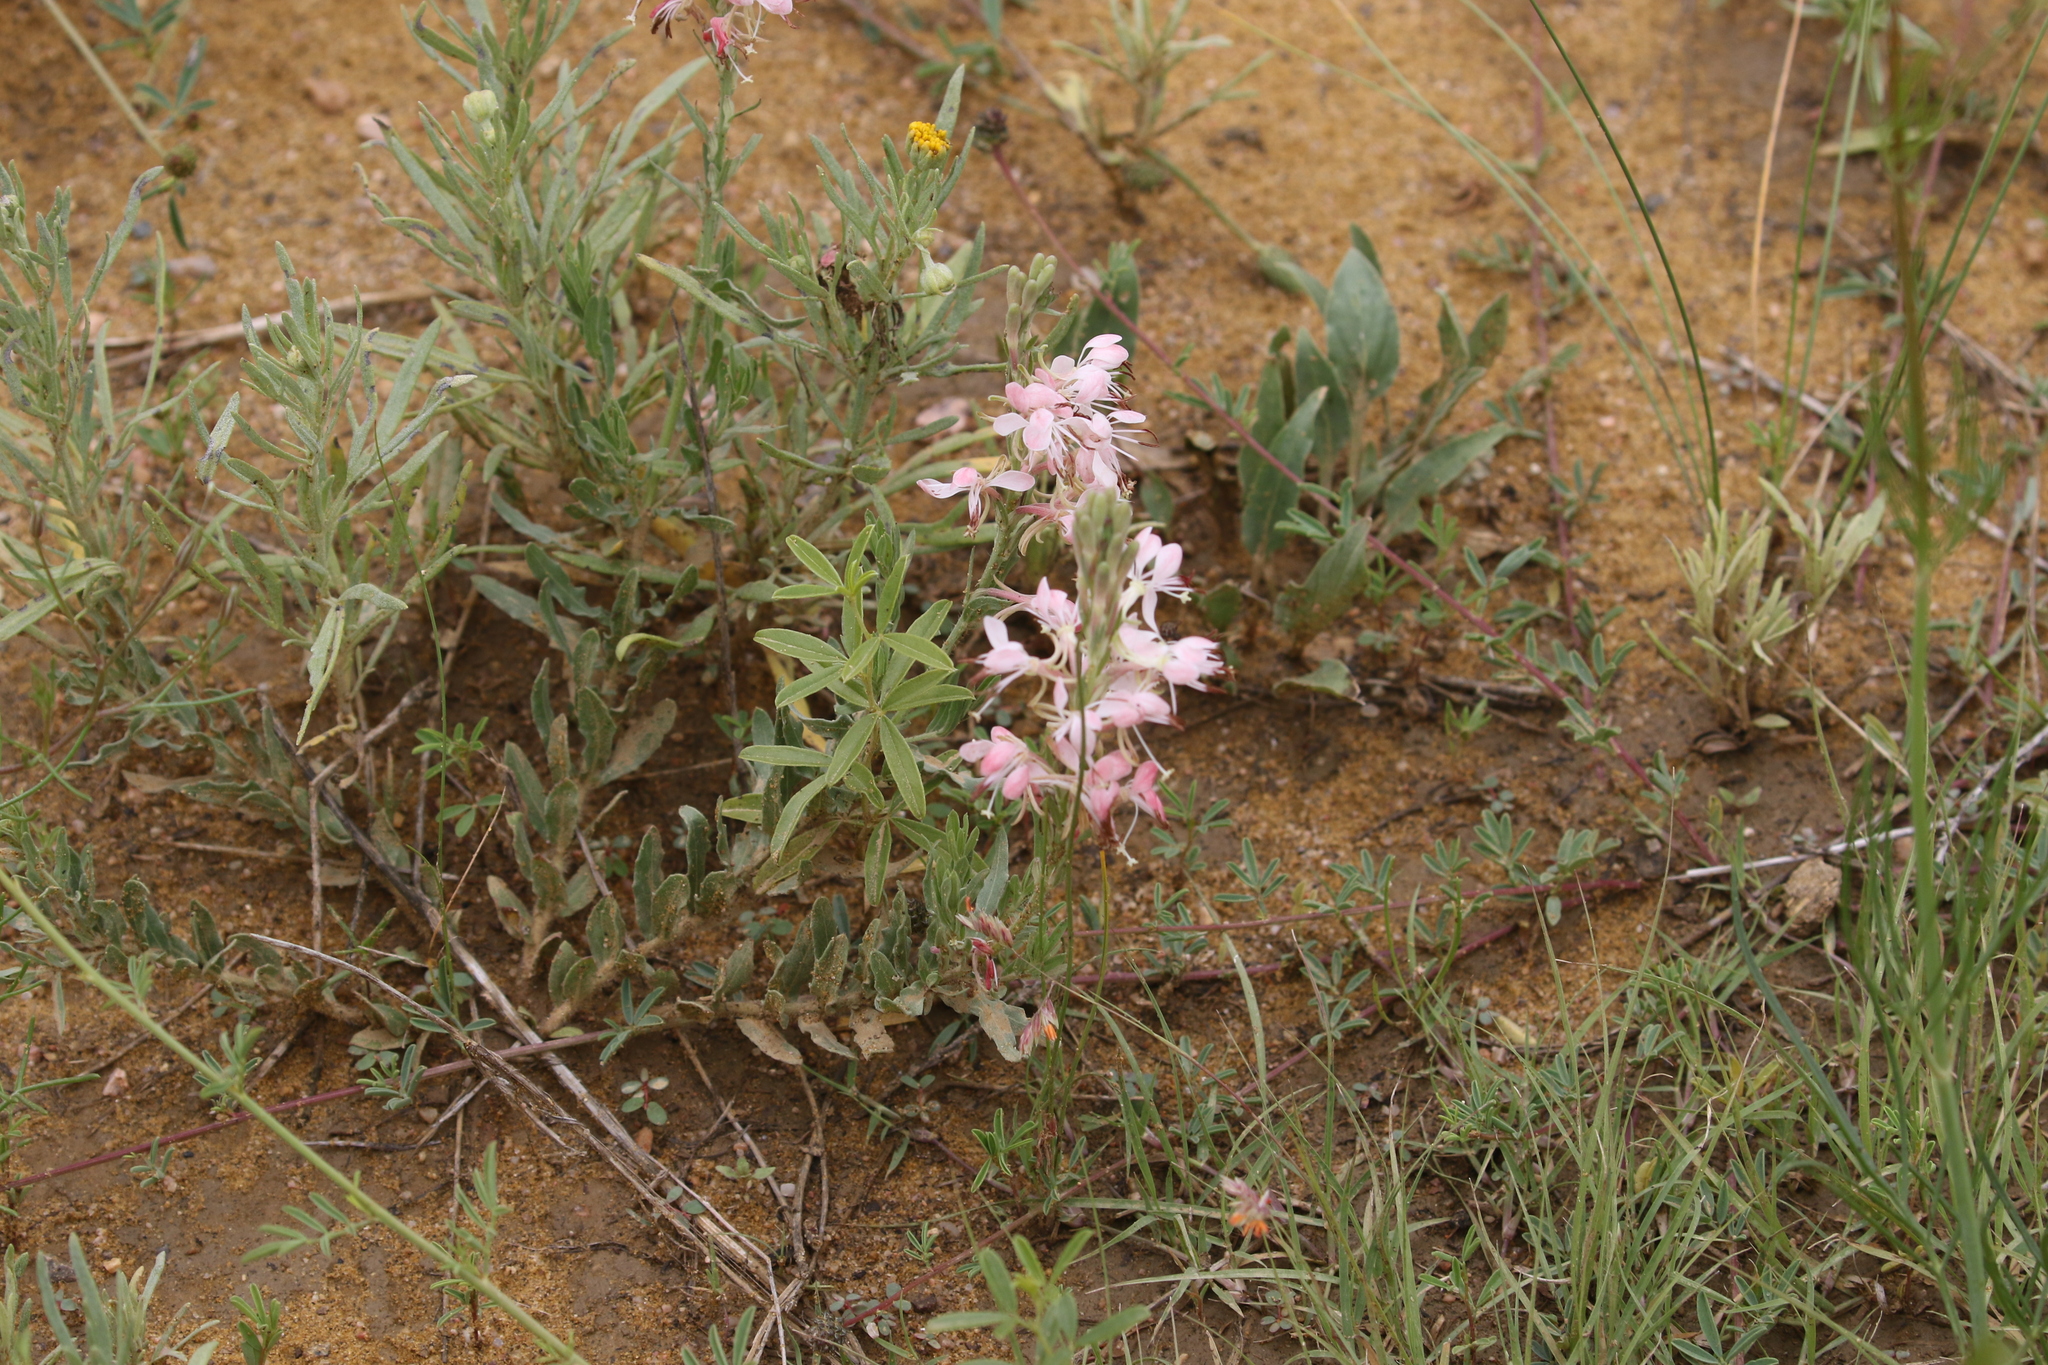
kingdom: Plantae
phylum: Tracheophyta
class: Magnoliopsida
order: Myrtales
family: Onagraceae
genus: Oenothera
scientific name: Oenothera suffrutescens
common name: Scarlet beeblossom
